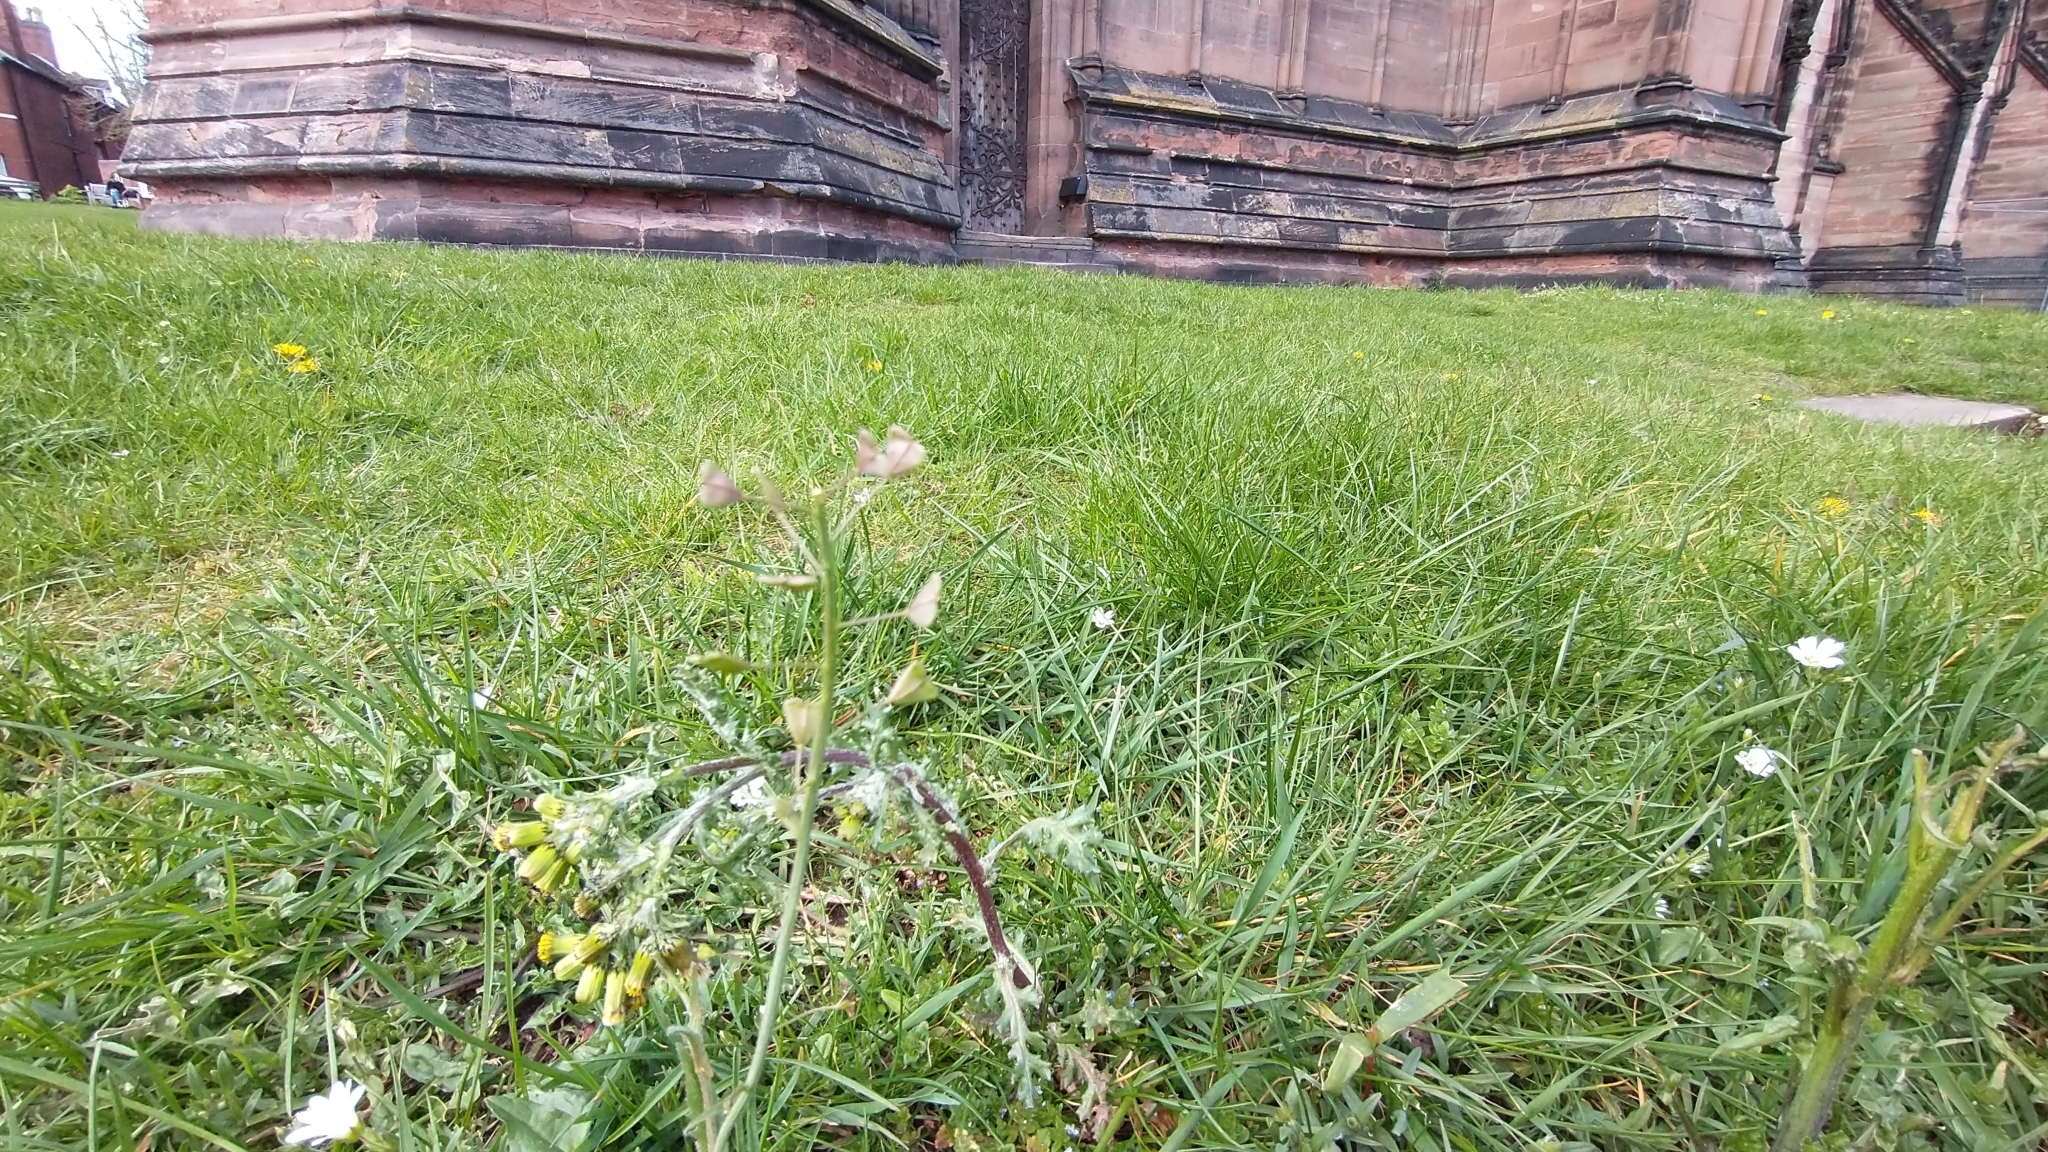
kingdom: Plantae
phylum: Tracheophyta
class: Magnoliopsida
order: Brassicales
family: Brassicaceae
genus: Capsella
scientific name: Capsella bursa-pastoris
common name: Shepherd's purse
